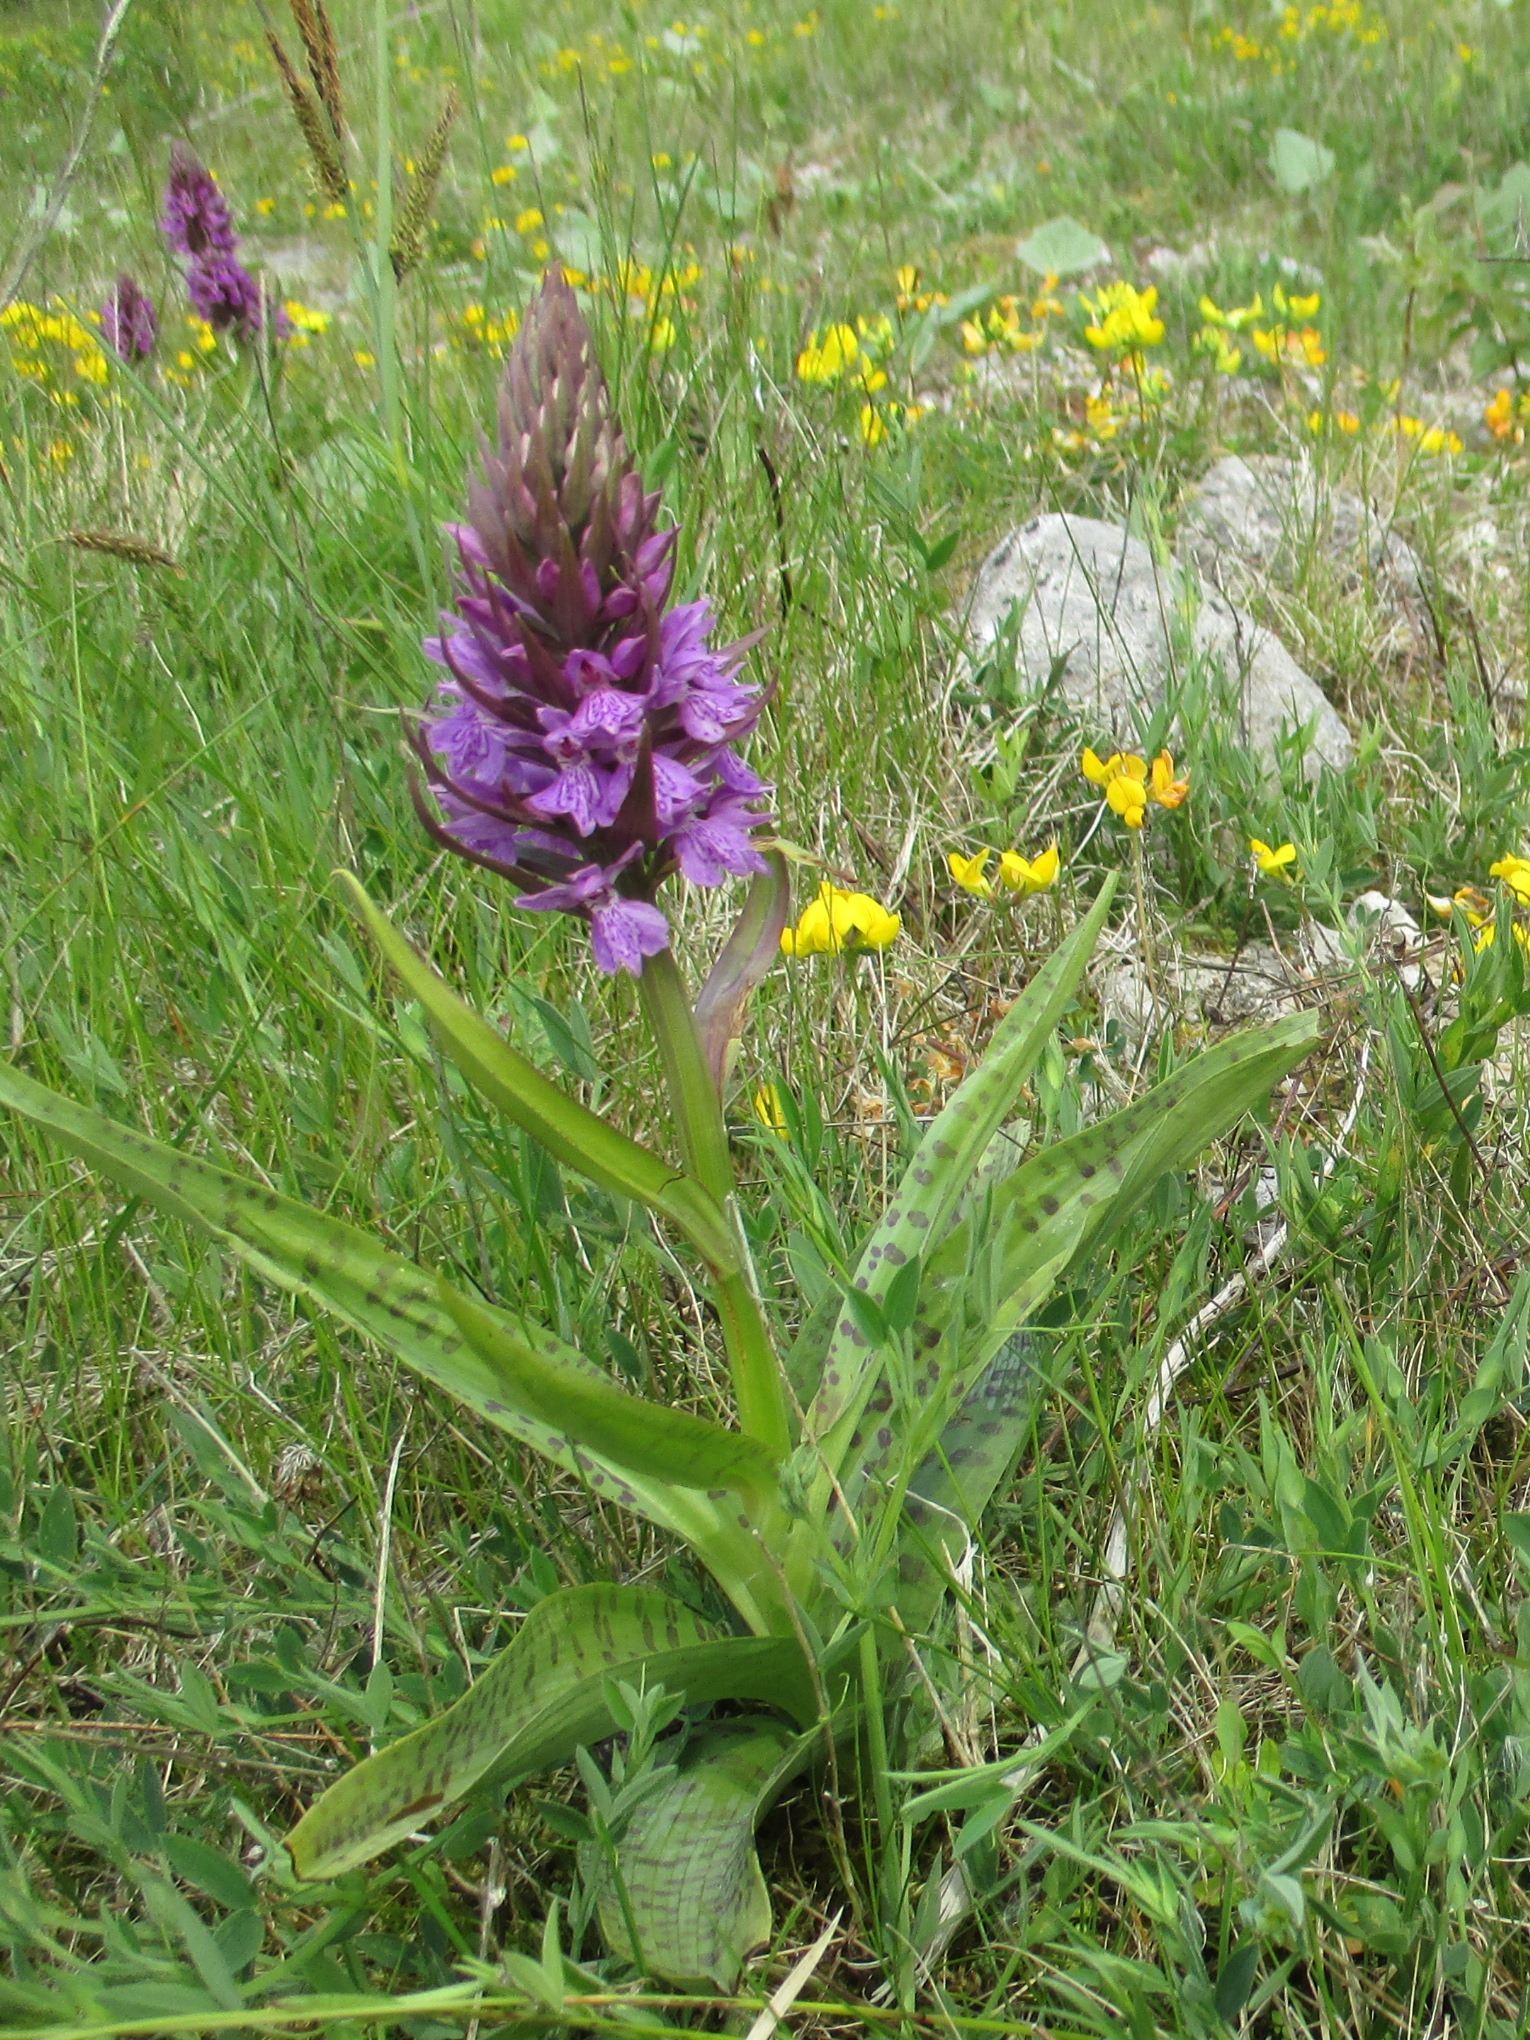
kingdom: Plantae
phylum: Tracheophyta
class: Liliopsida
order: Asparagales
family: Orchidaceae
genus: Dactylorhiza
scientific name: Dactylorhiza majalis
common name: Marsh orchid
